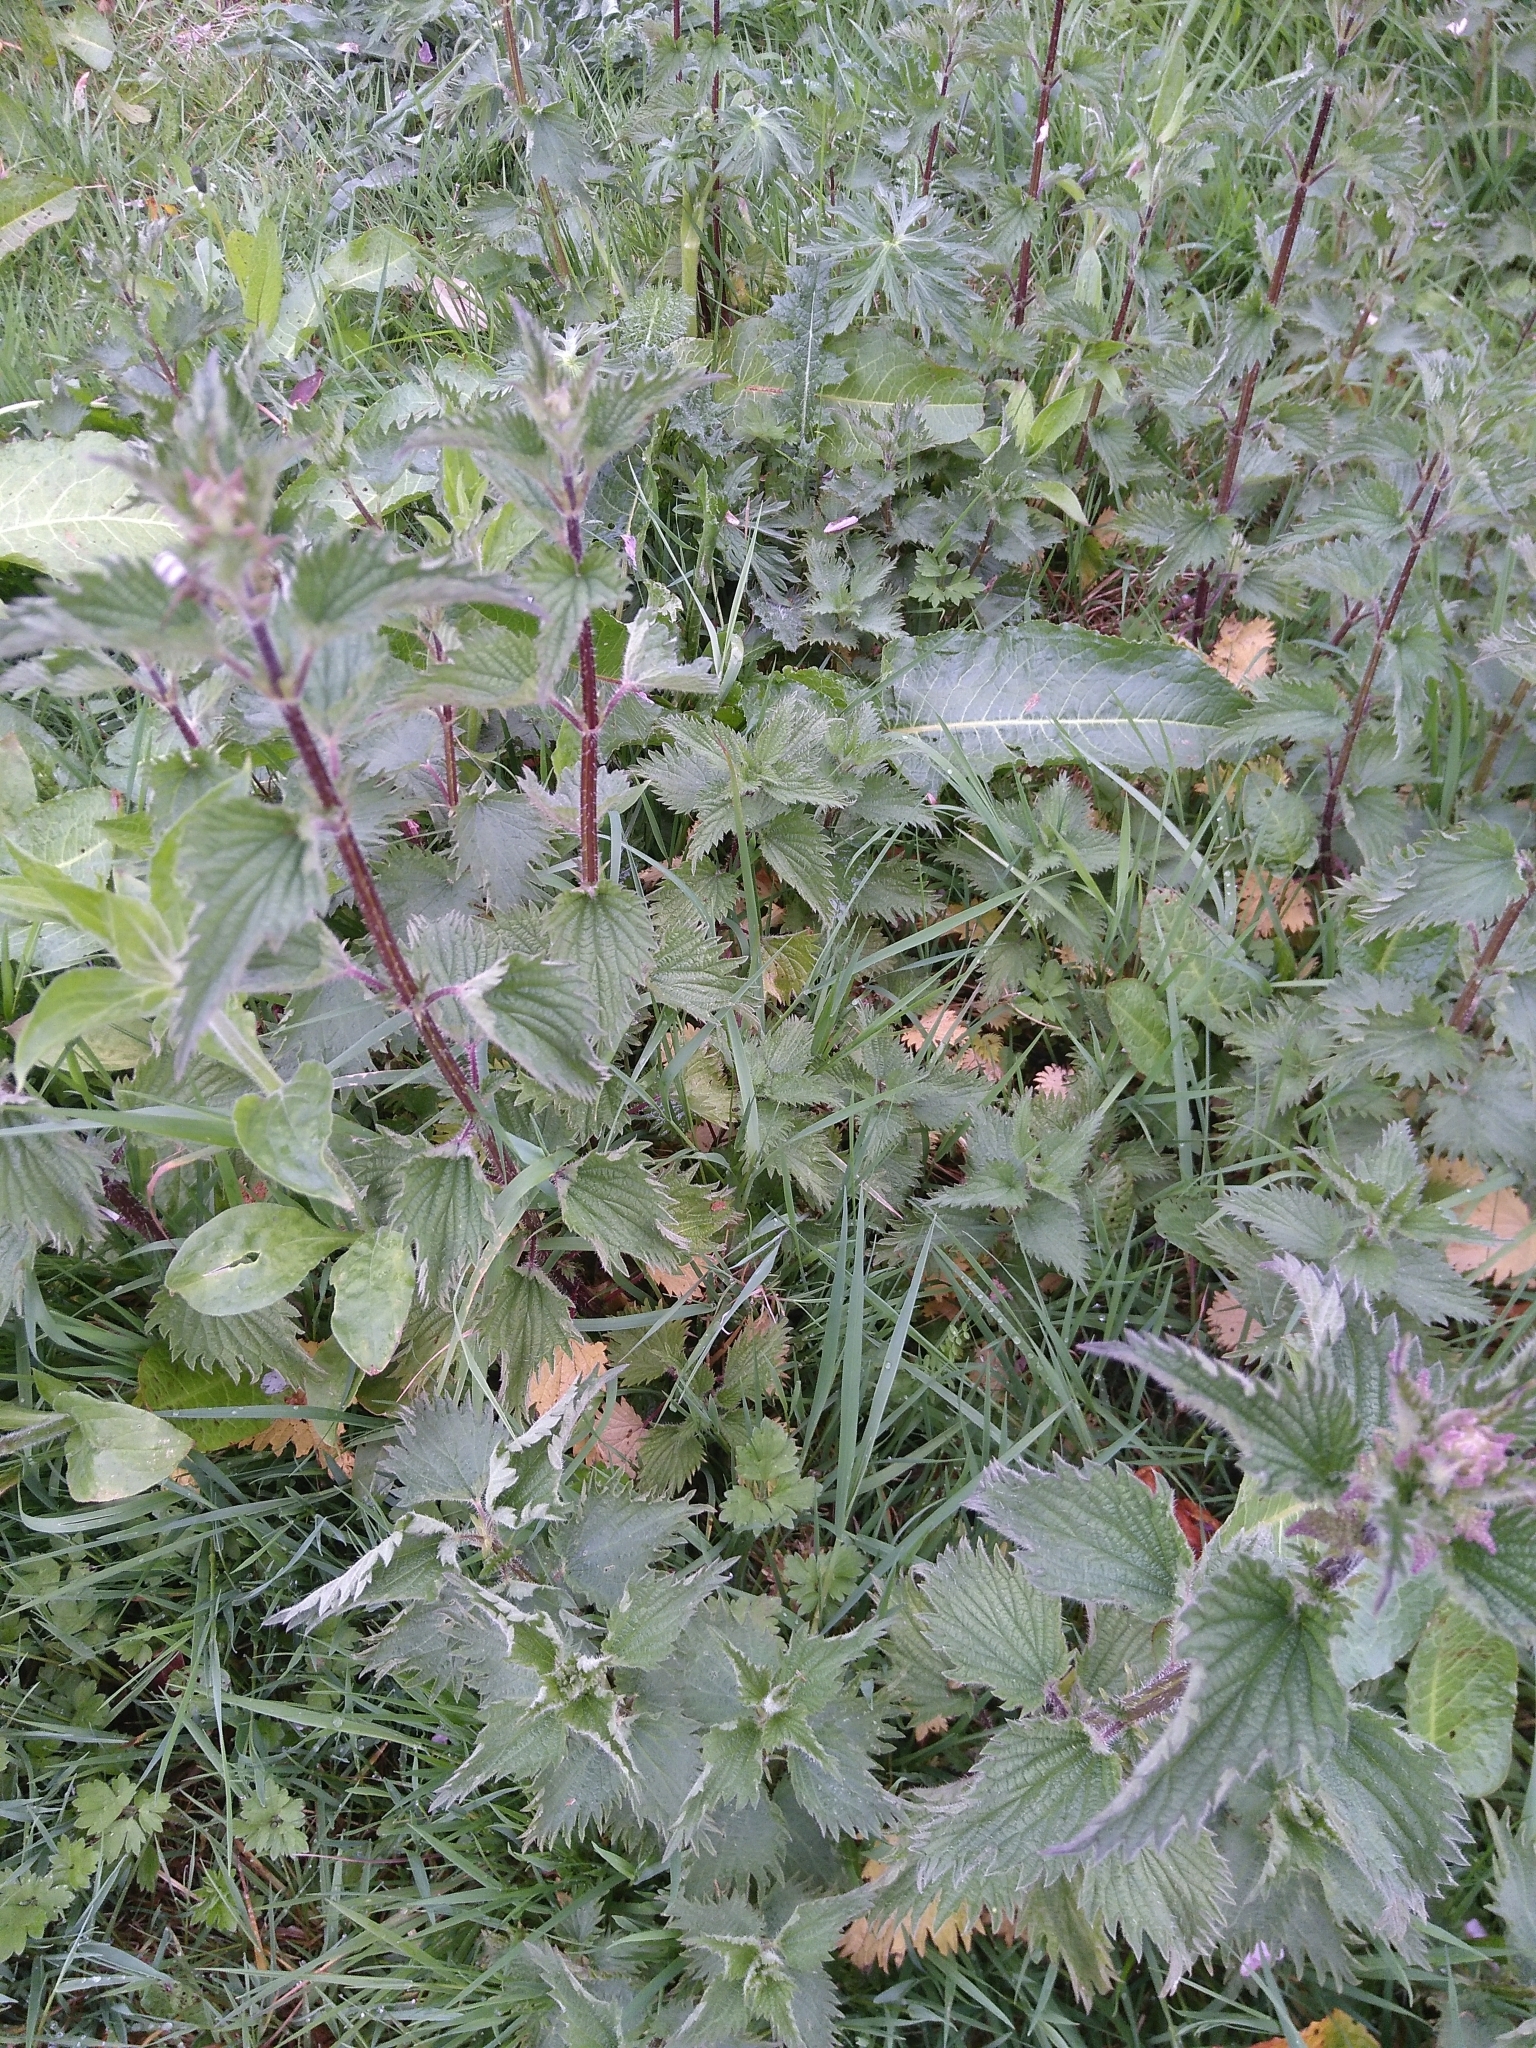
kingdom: Plantae
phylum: Tracheophyta
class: Magnoliopsida
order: Rosales
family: Urticaceae
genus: Urtica
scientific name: Urtica dioica
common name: Common nettle
